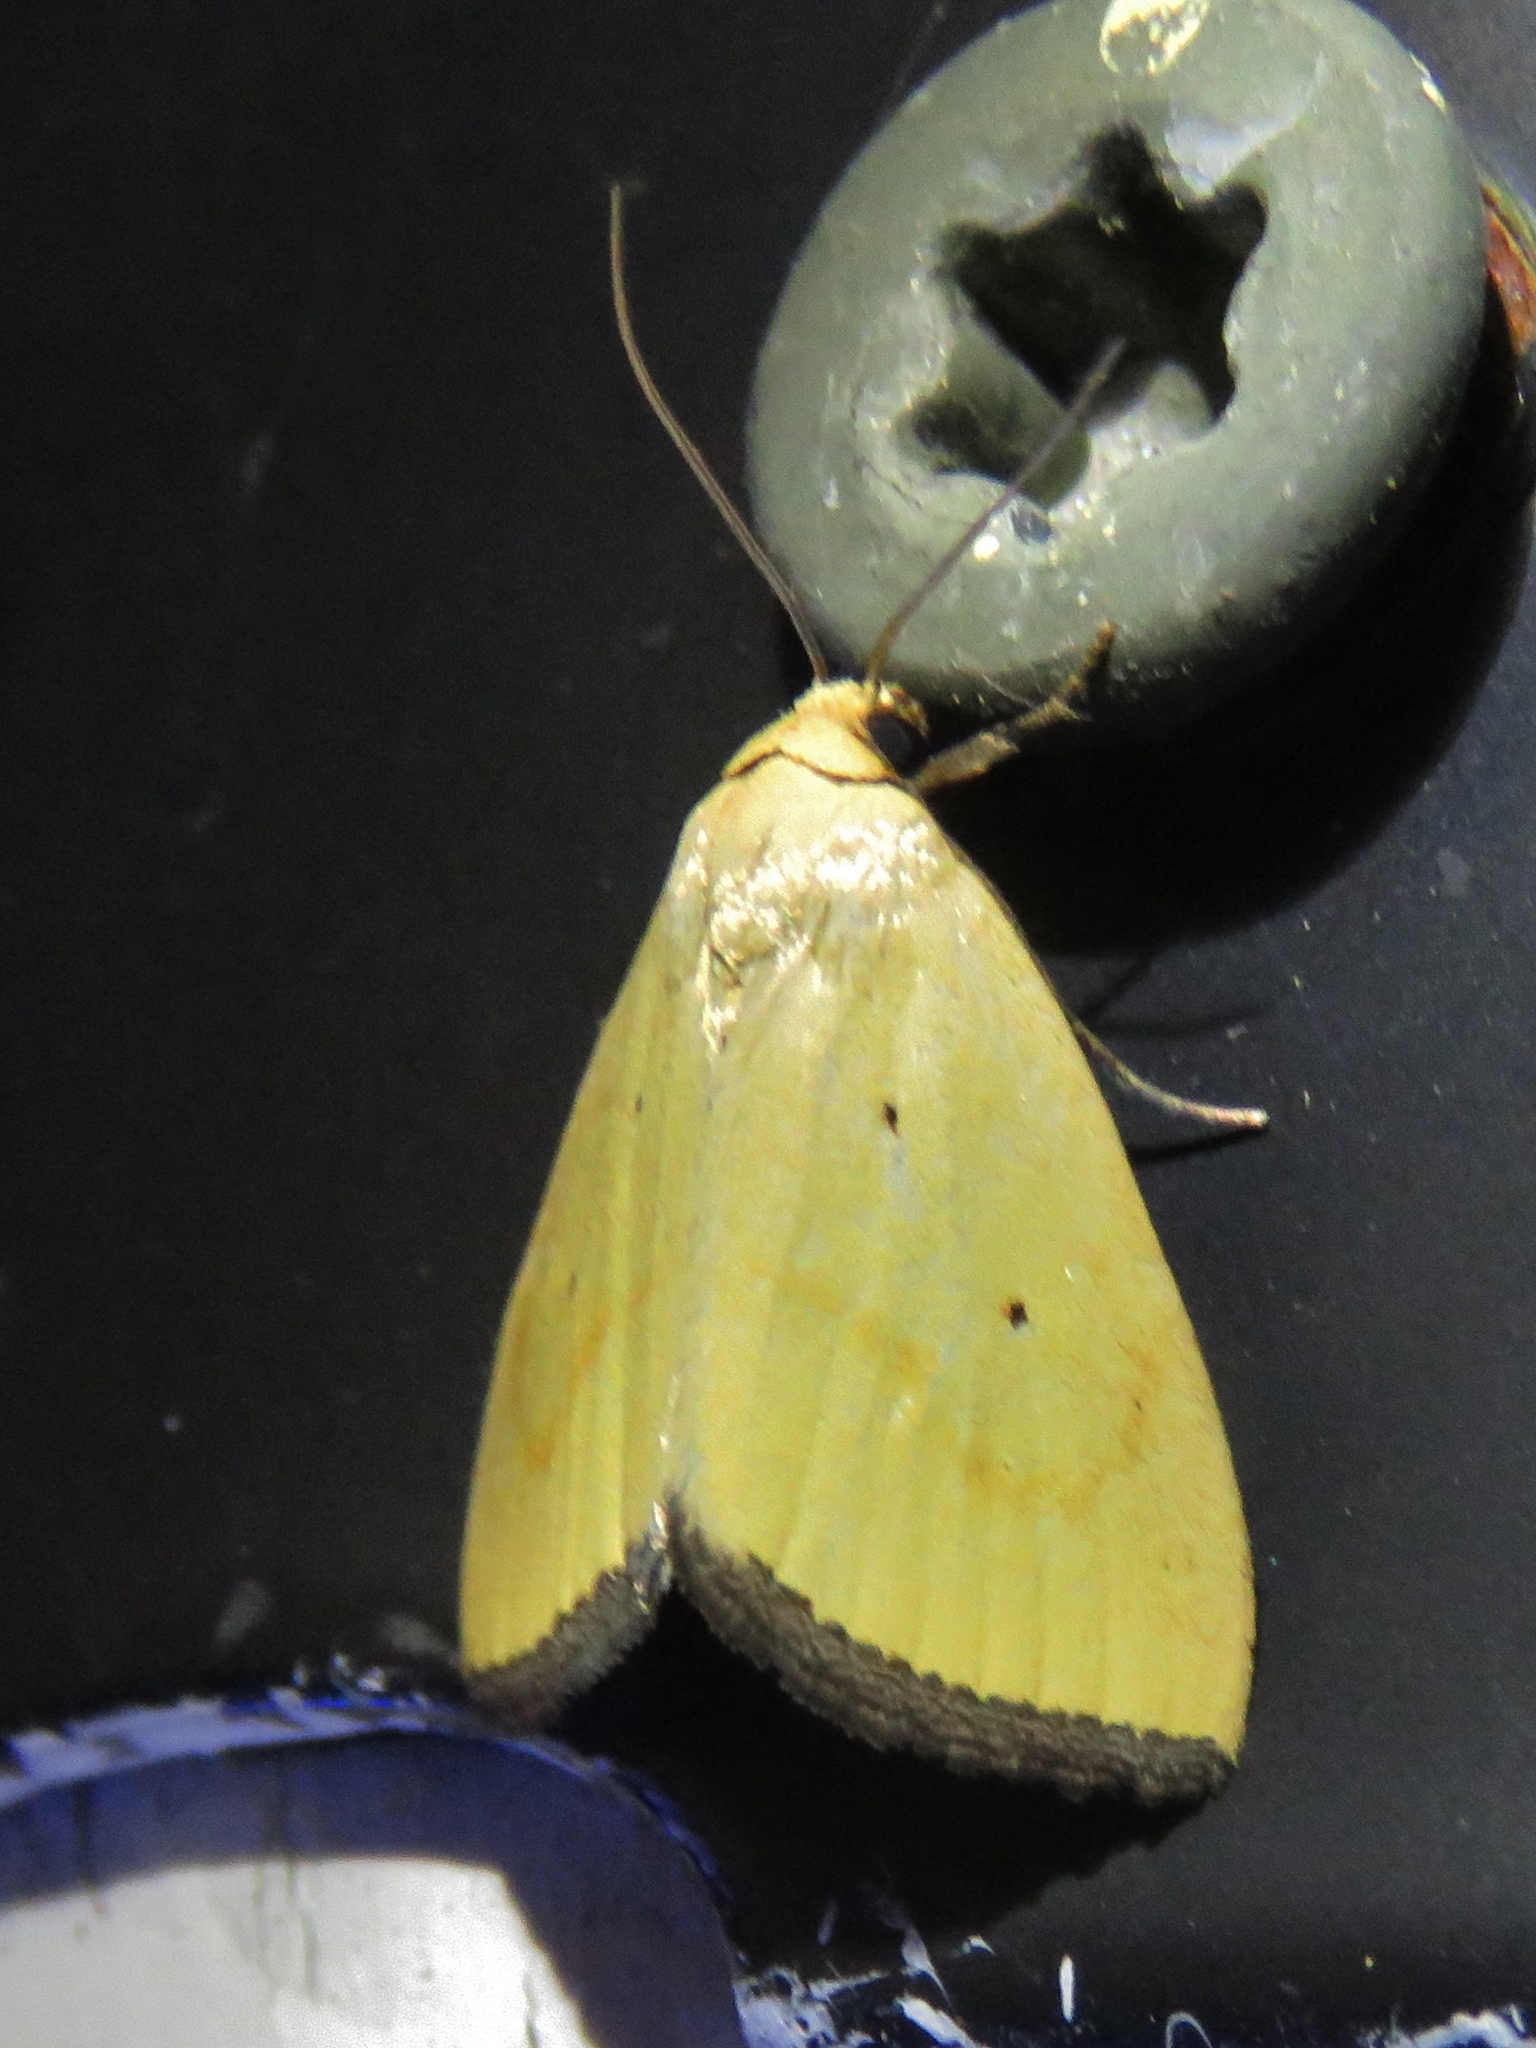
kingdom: Animalia
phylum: Arthropoda
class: Insecta
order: Lepidoptera
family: Noctuidae
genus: Marimatha
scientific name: Marimatha nigrofimbria
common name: Black-bordered lemon moth
